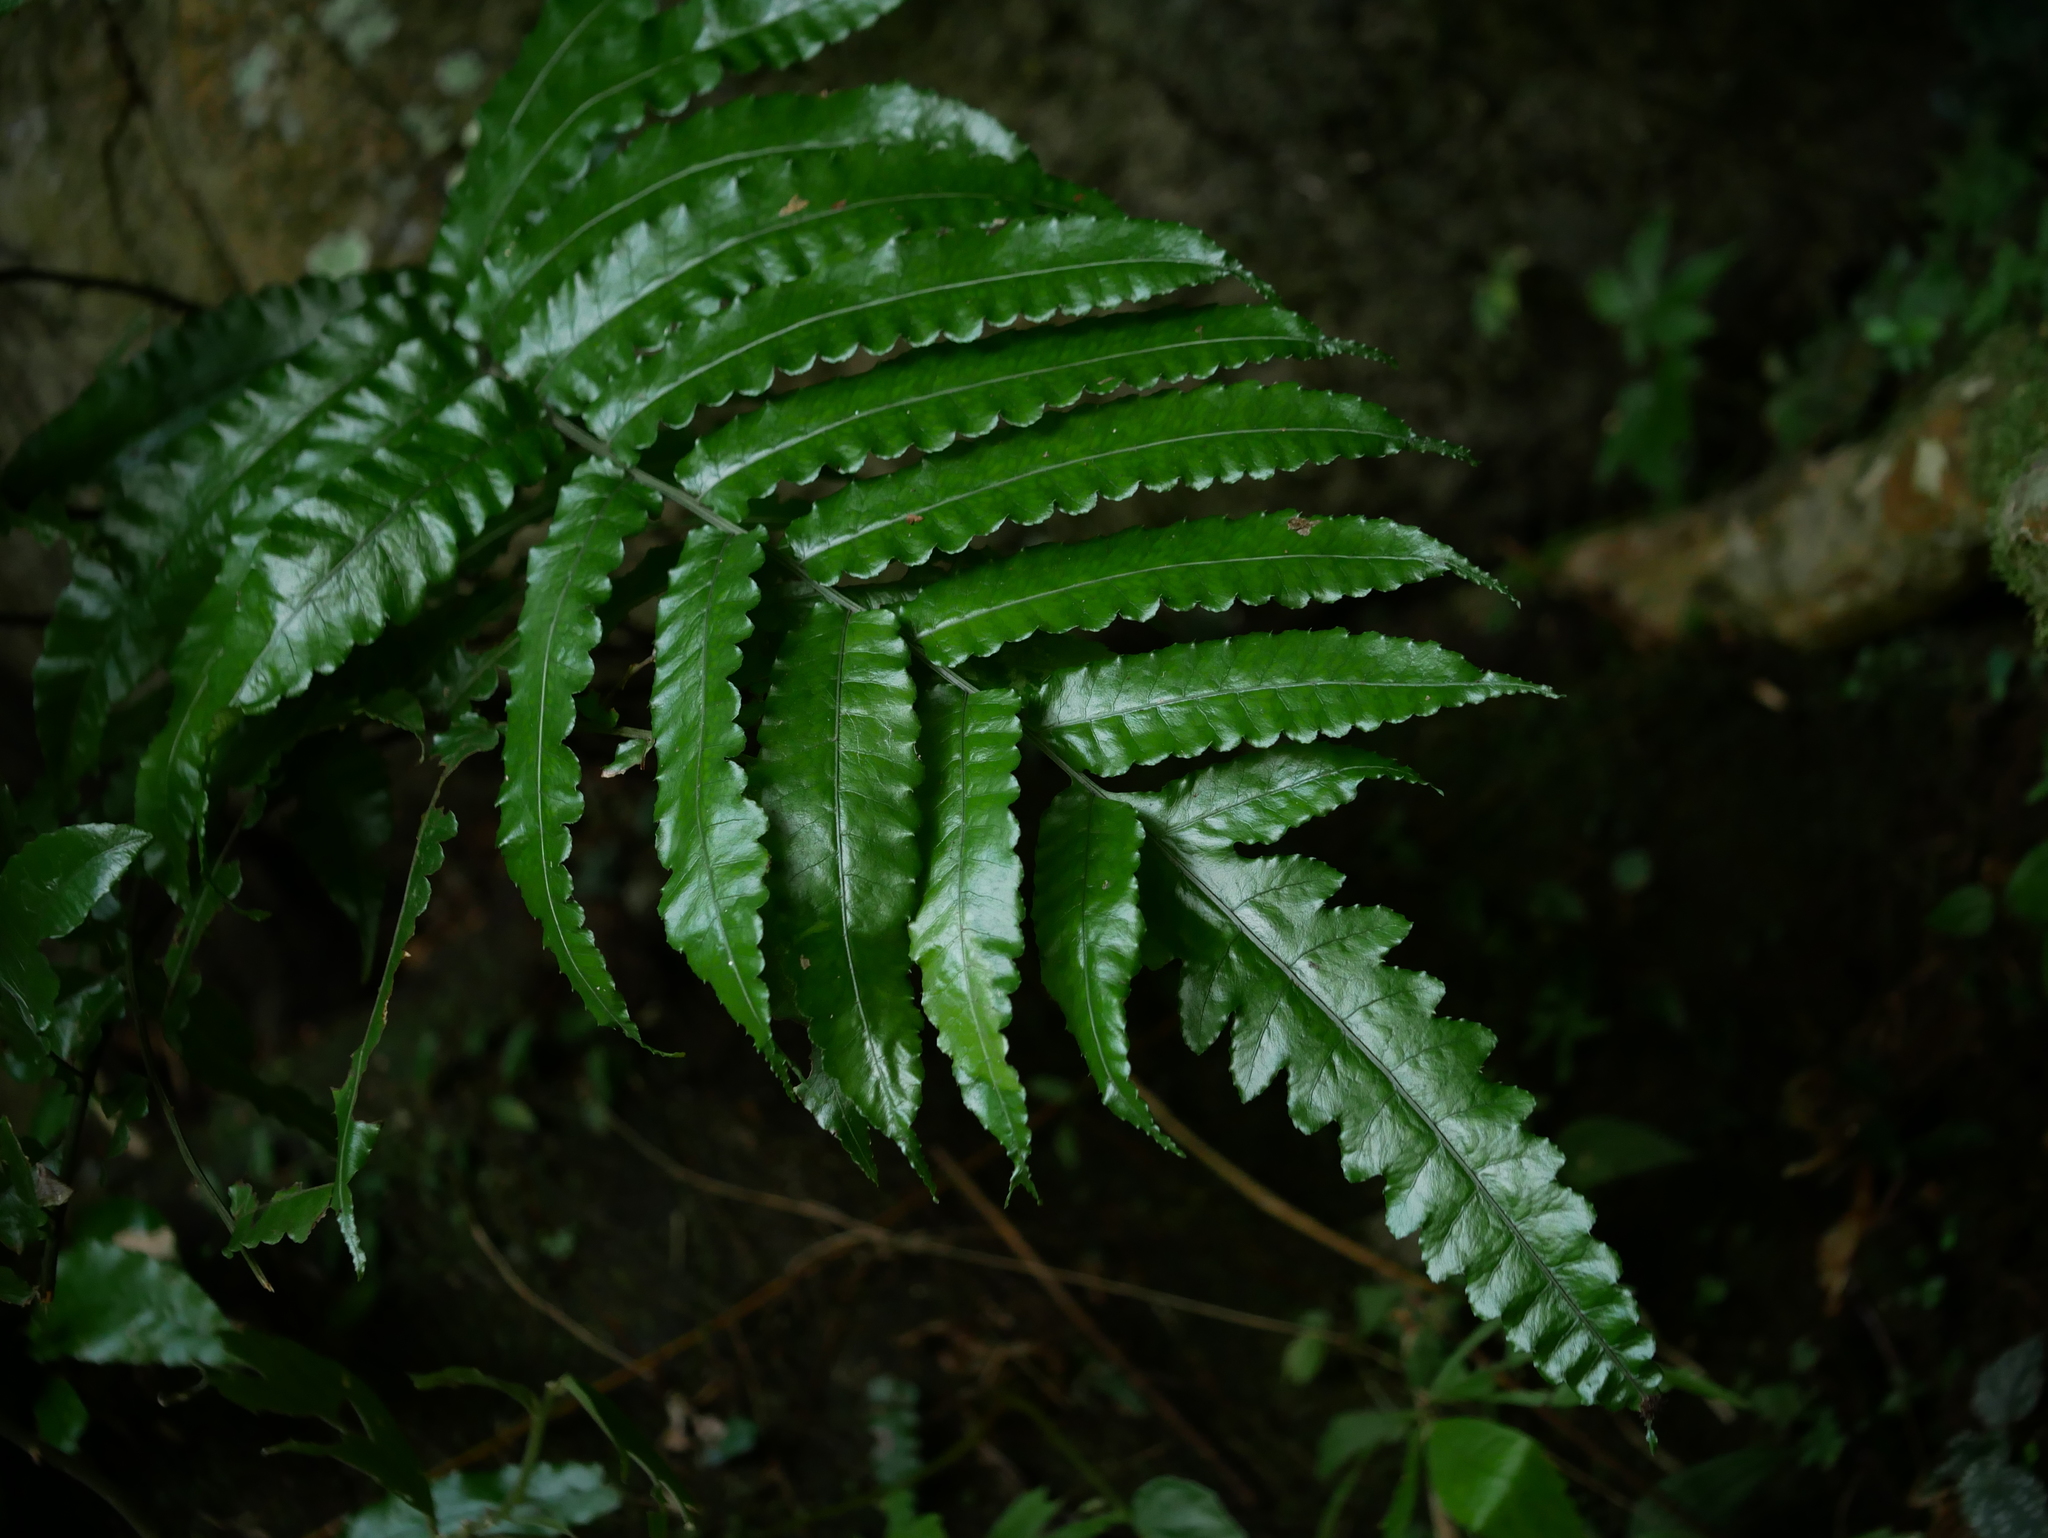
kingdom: Plantae
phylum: Tracheophyta
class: Polypodiopsida
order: Polypodiales
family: Dryopteridaceae
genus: Bolbitis
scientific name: Bolbitis subcordata
